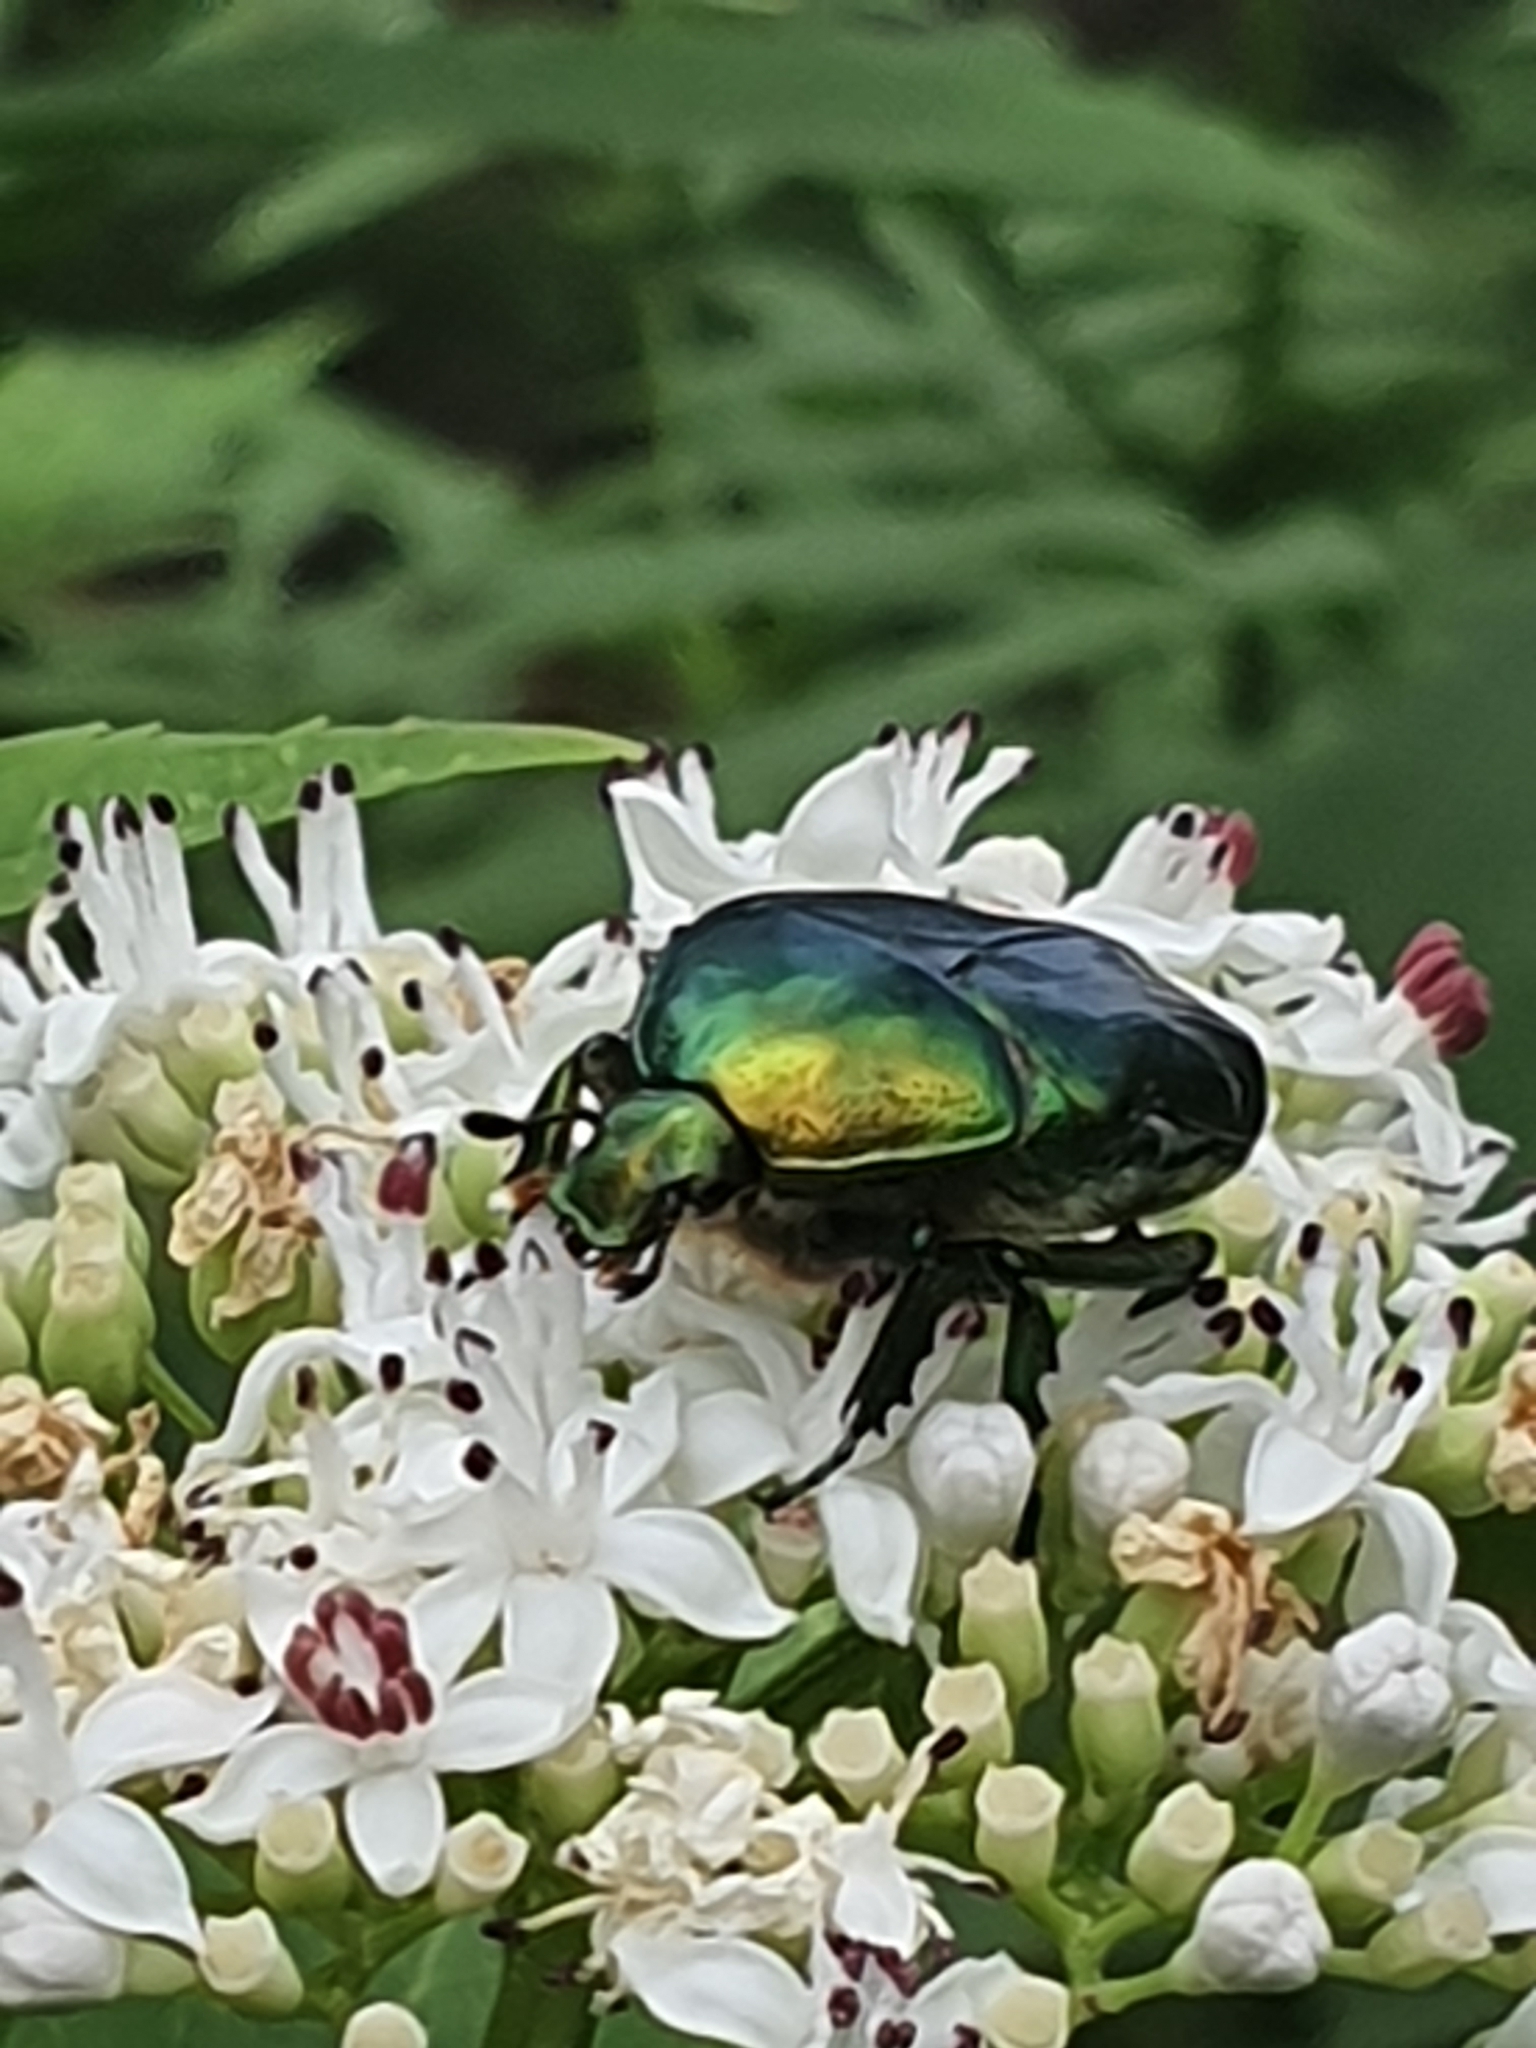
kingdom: Animalia
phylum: Arthropoda
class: Insecta
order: Coleoptera
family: Scarabaeidae
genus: Cetonia
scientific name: Cetonia aurata
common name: Rose chafer
